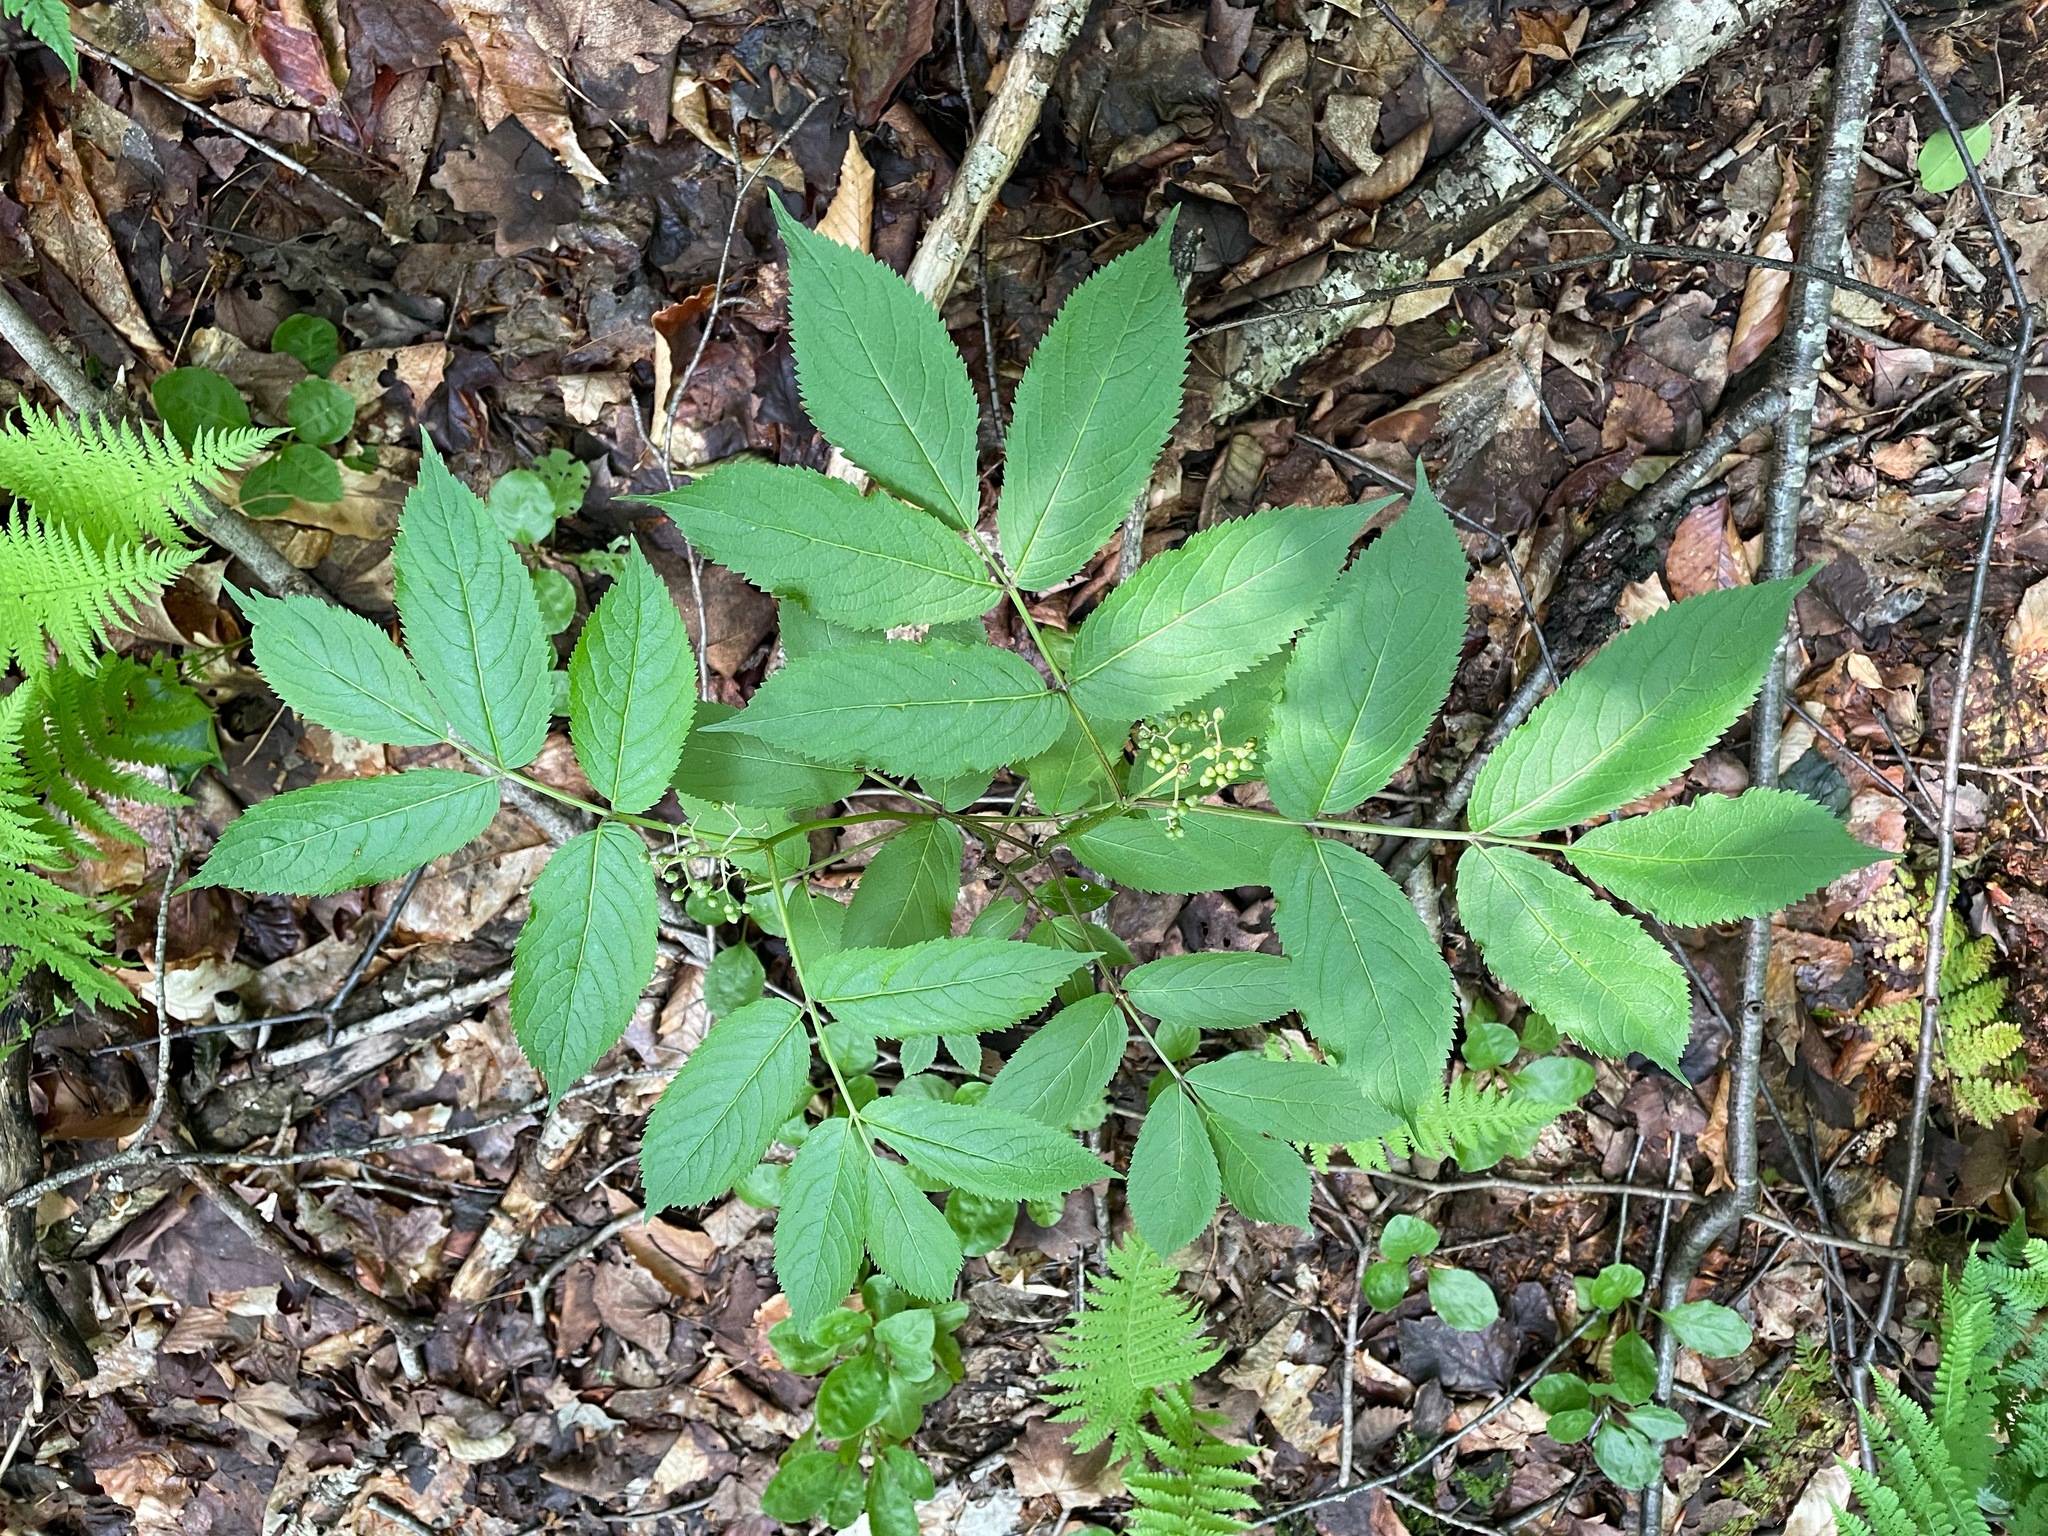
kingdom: Plantae
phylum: Tracheophyta
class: Magnoliopsida
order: Dipsacales
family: Viburnaceae
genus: Sambucus
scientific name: Sambucus racemosa
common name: Red-berried elder
